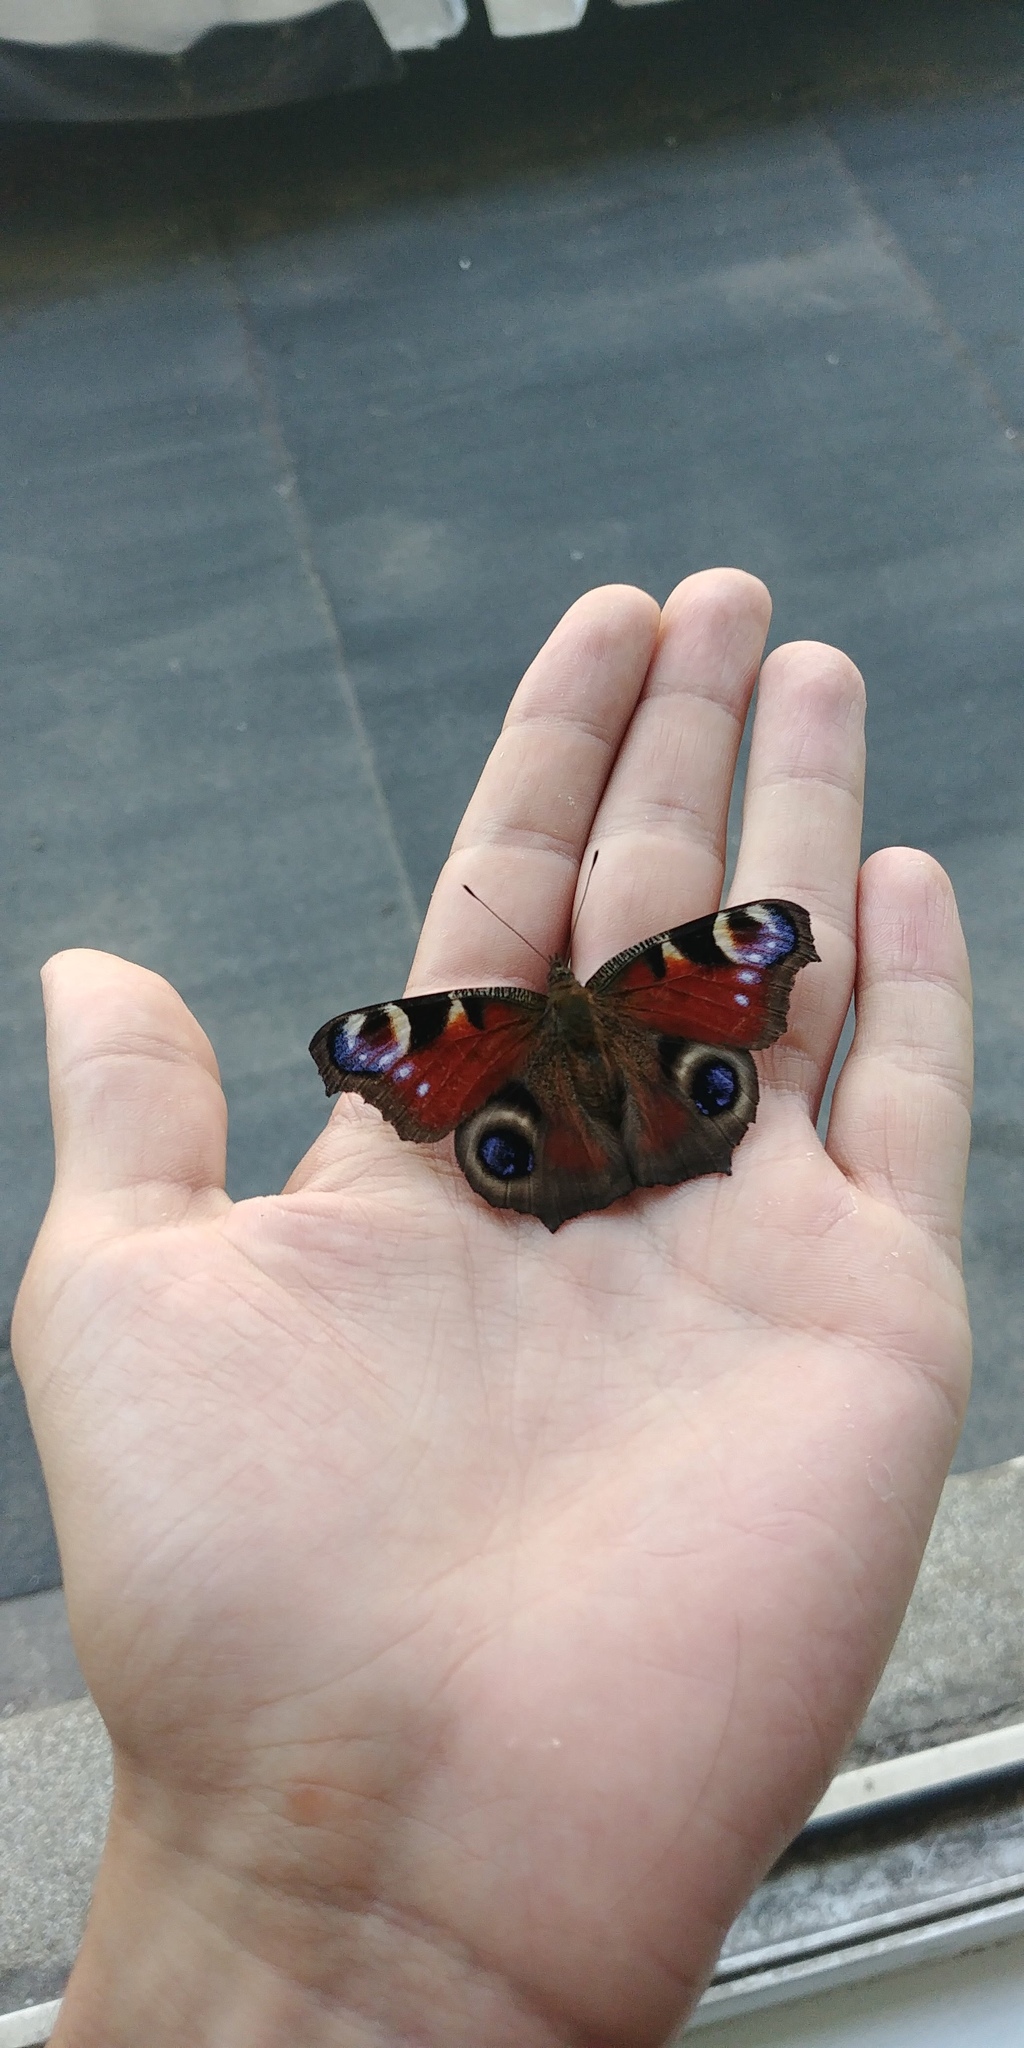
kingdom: Animalia
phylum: Arthropoda
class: Insecta
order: Lepidoptera
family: Nymphalidae
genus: Aglais
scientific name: Aglais io
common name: Peacock
